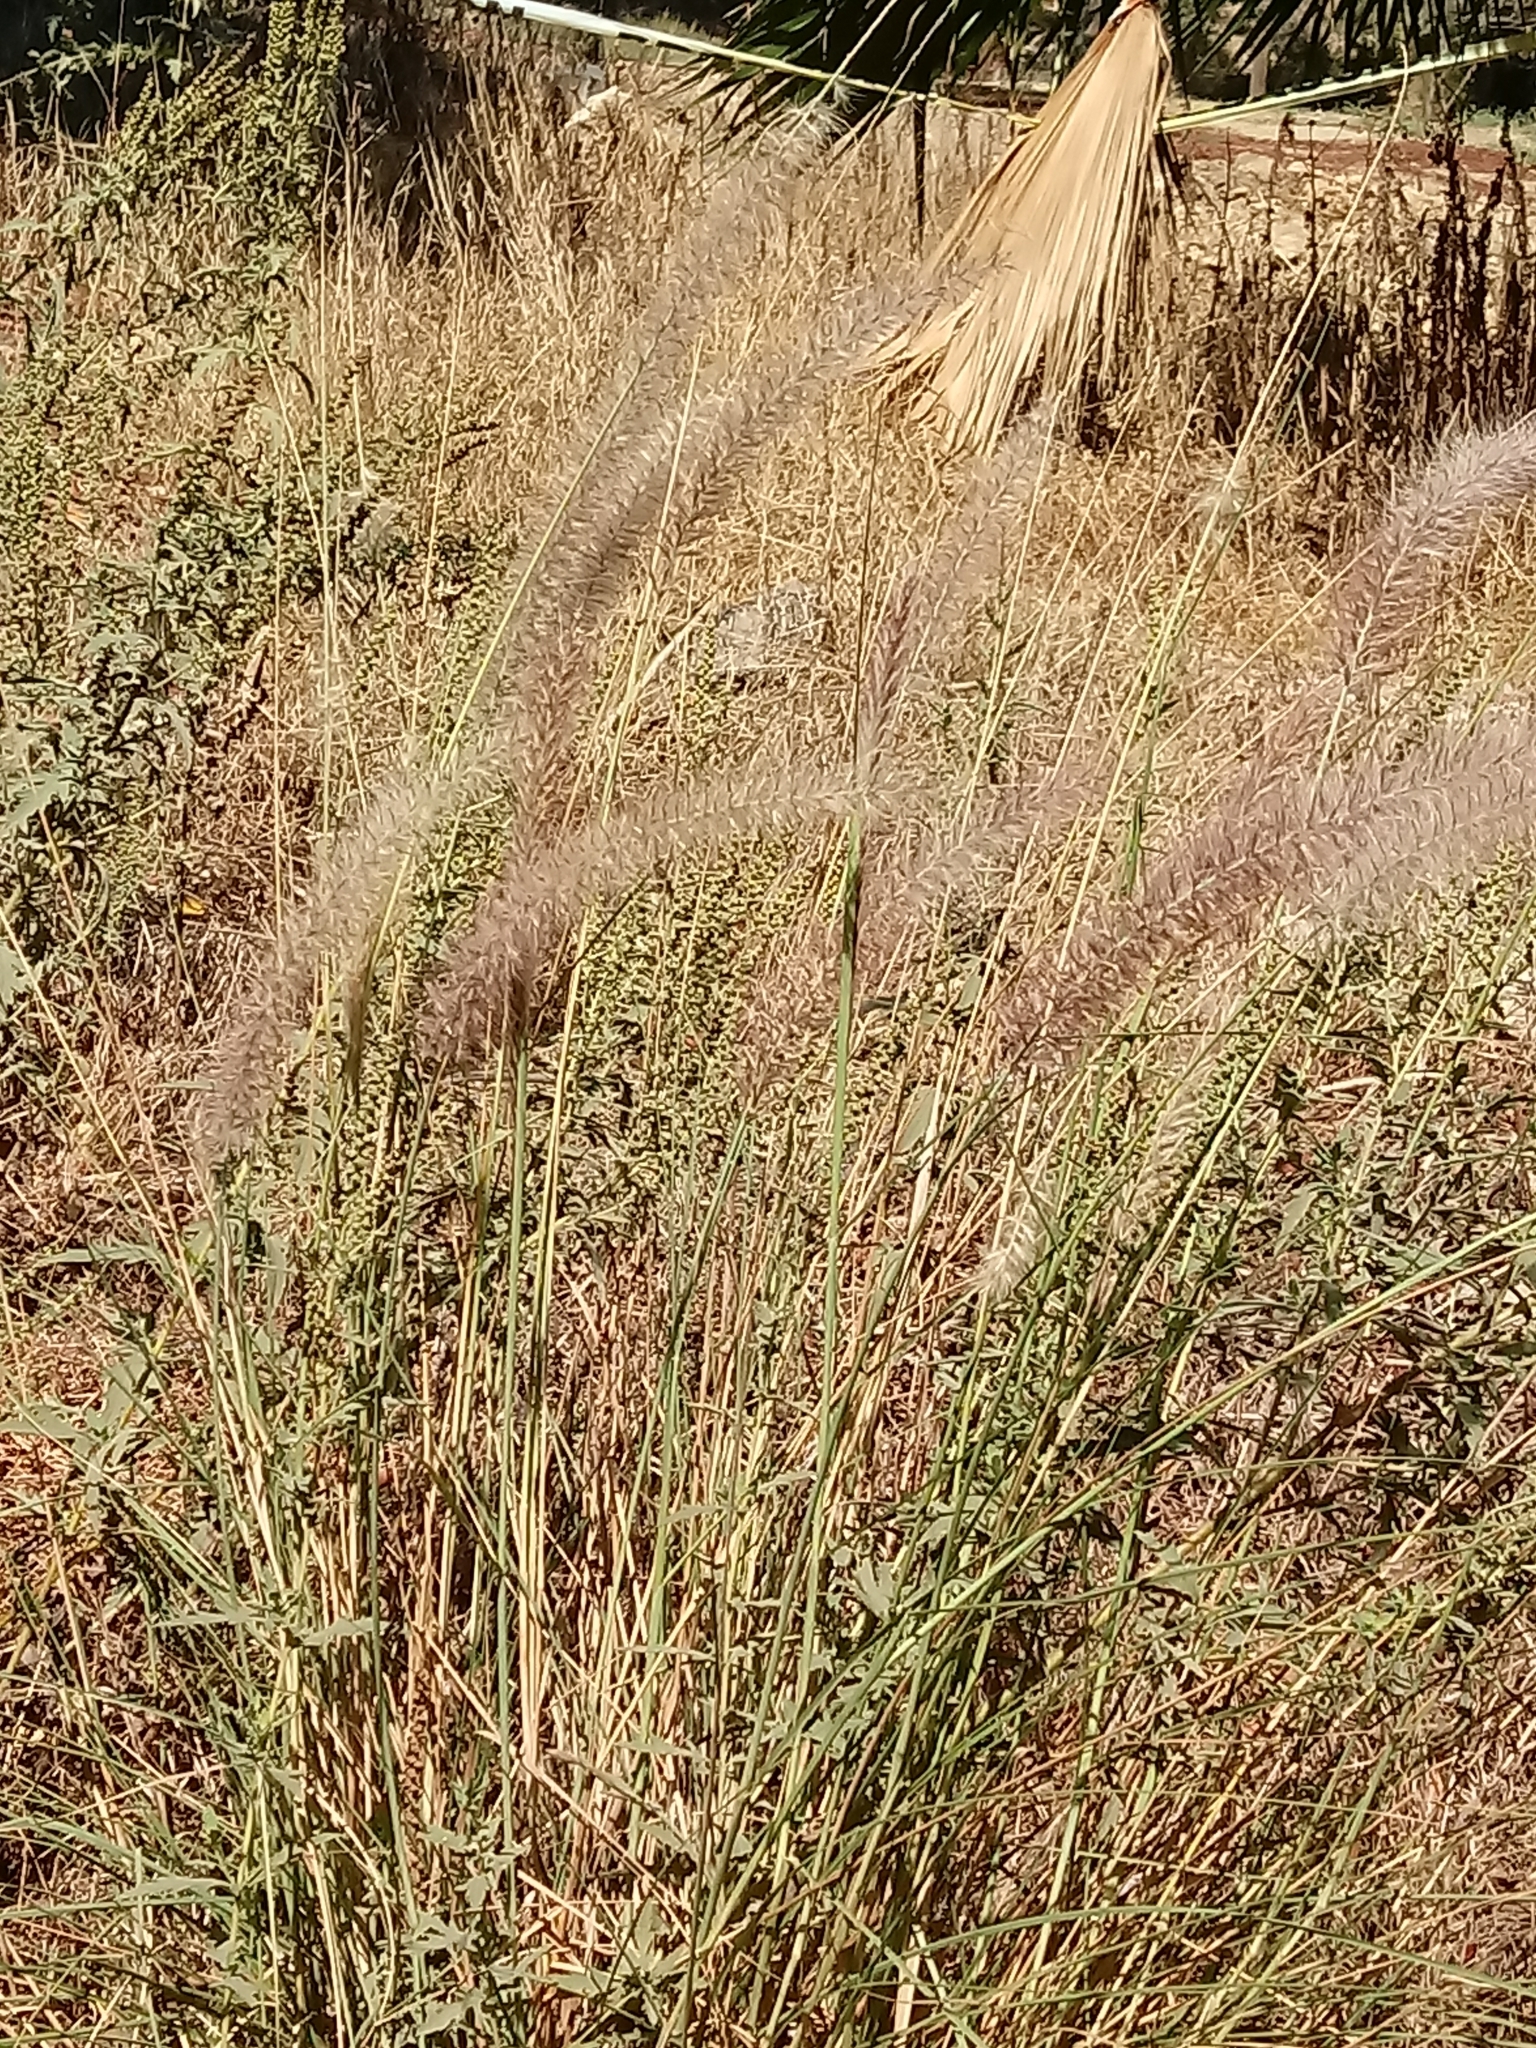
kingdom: Plantae
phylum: Tracheophyta
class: Liliopsida
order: Poales
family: Poaceae
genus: Cenchrus
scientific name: Cenchrus setaceus
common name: Crimson fountaingrass
